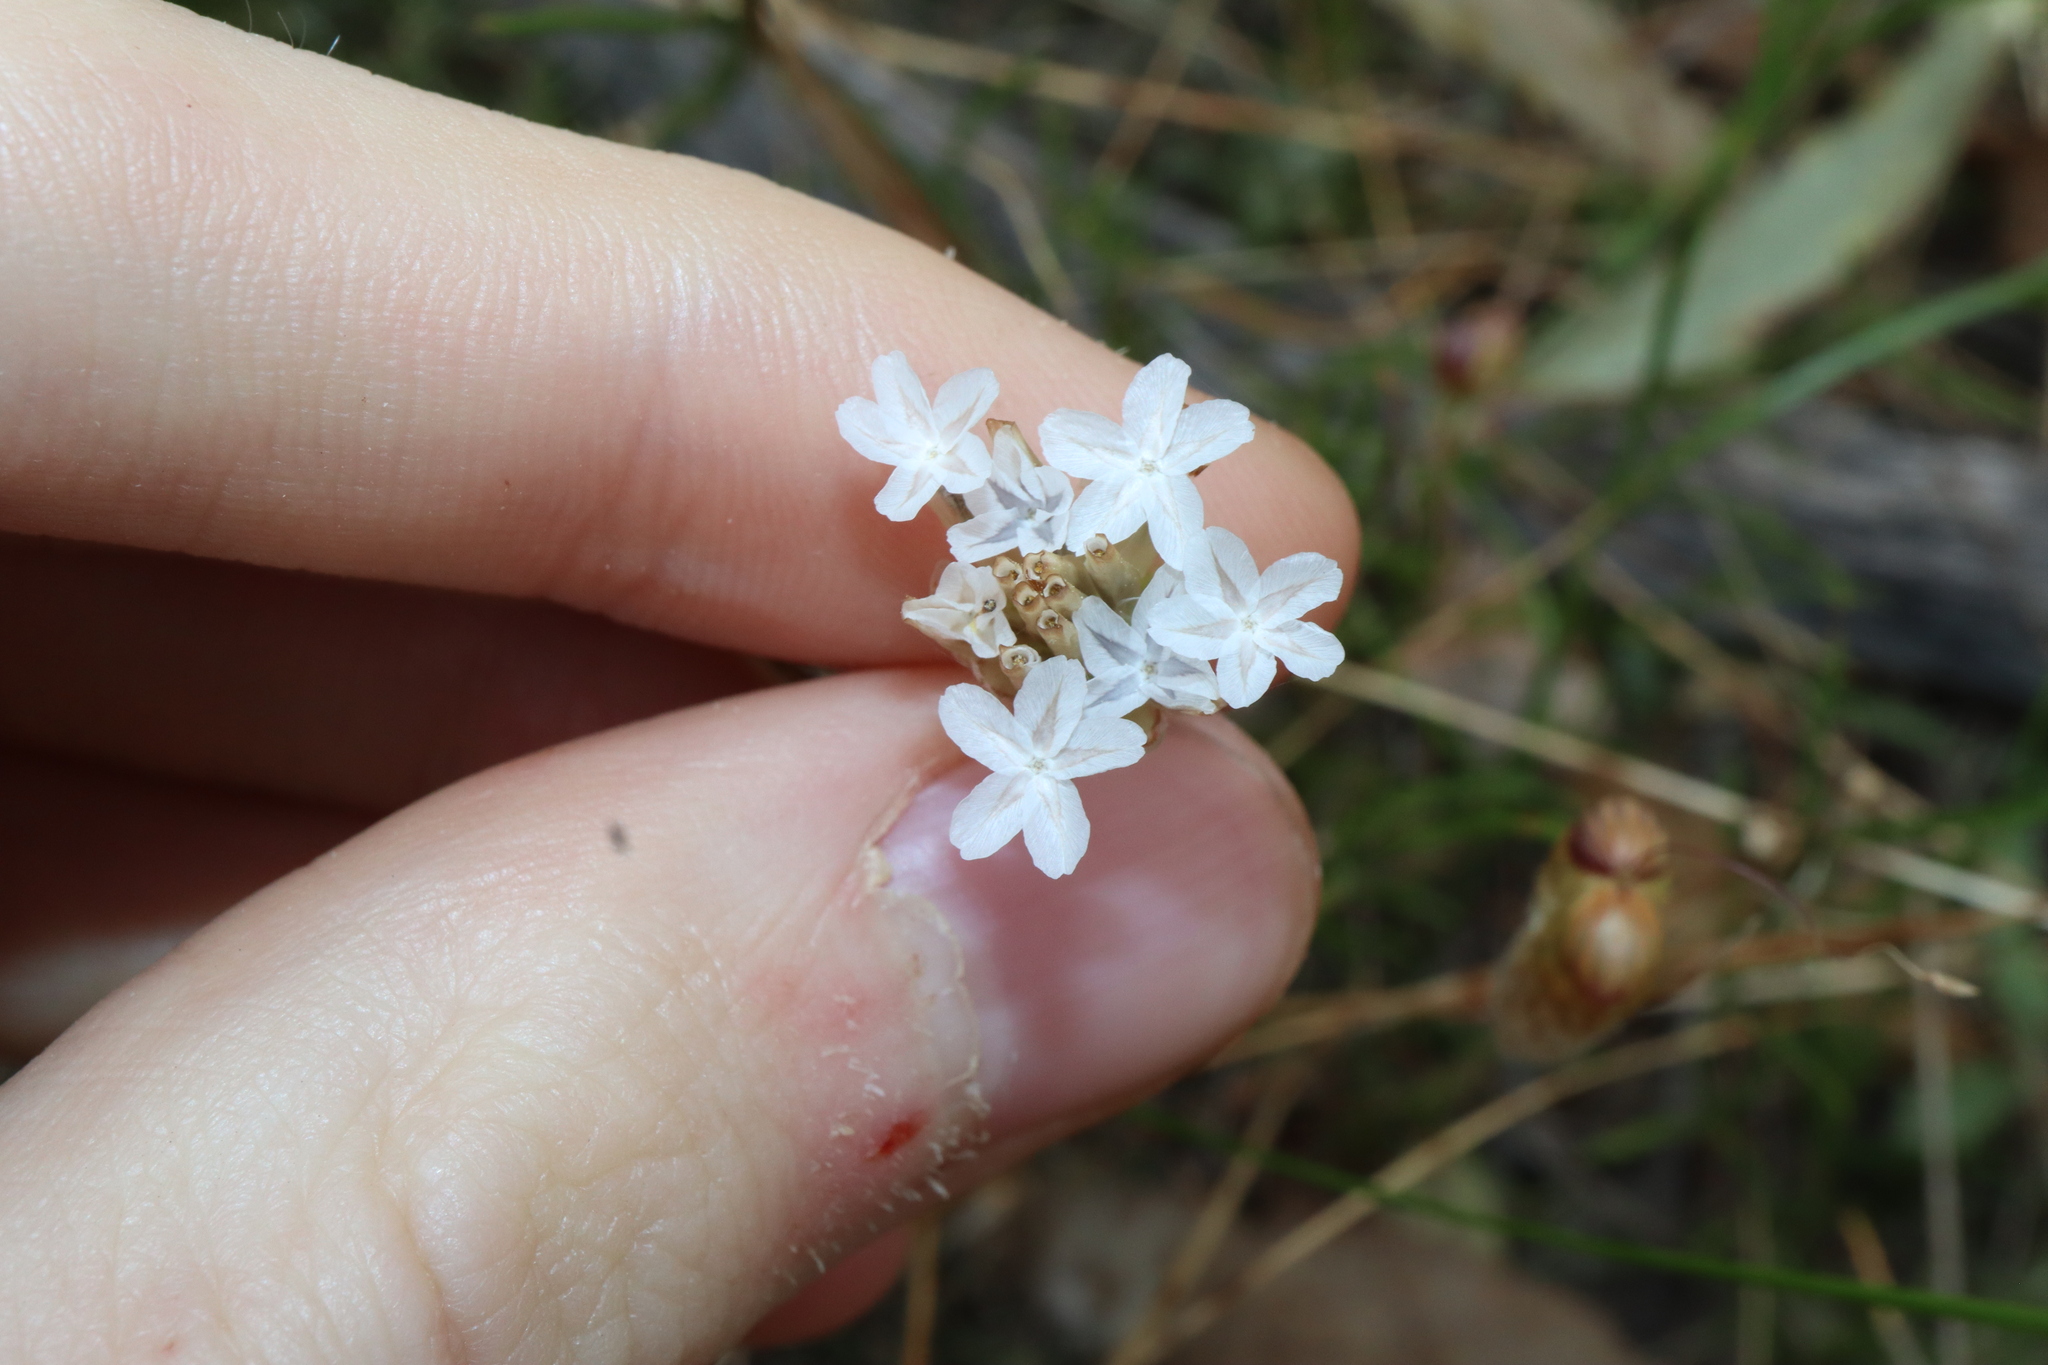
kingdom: Plantae
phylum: Tracheophyta
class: Magnoliopsida
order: Asterales
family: Asteraceae
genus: Ursinia
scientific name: Ursinia anthemoides
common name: Ursinia
